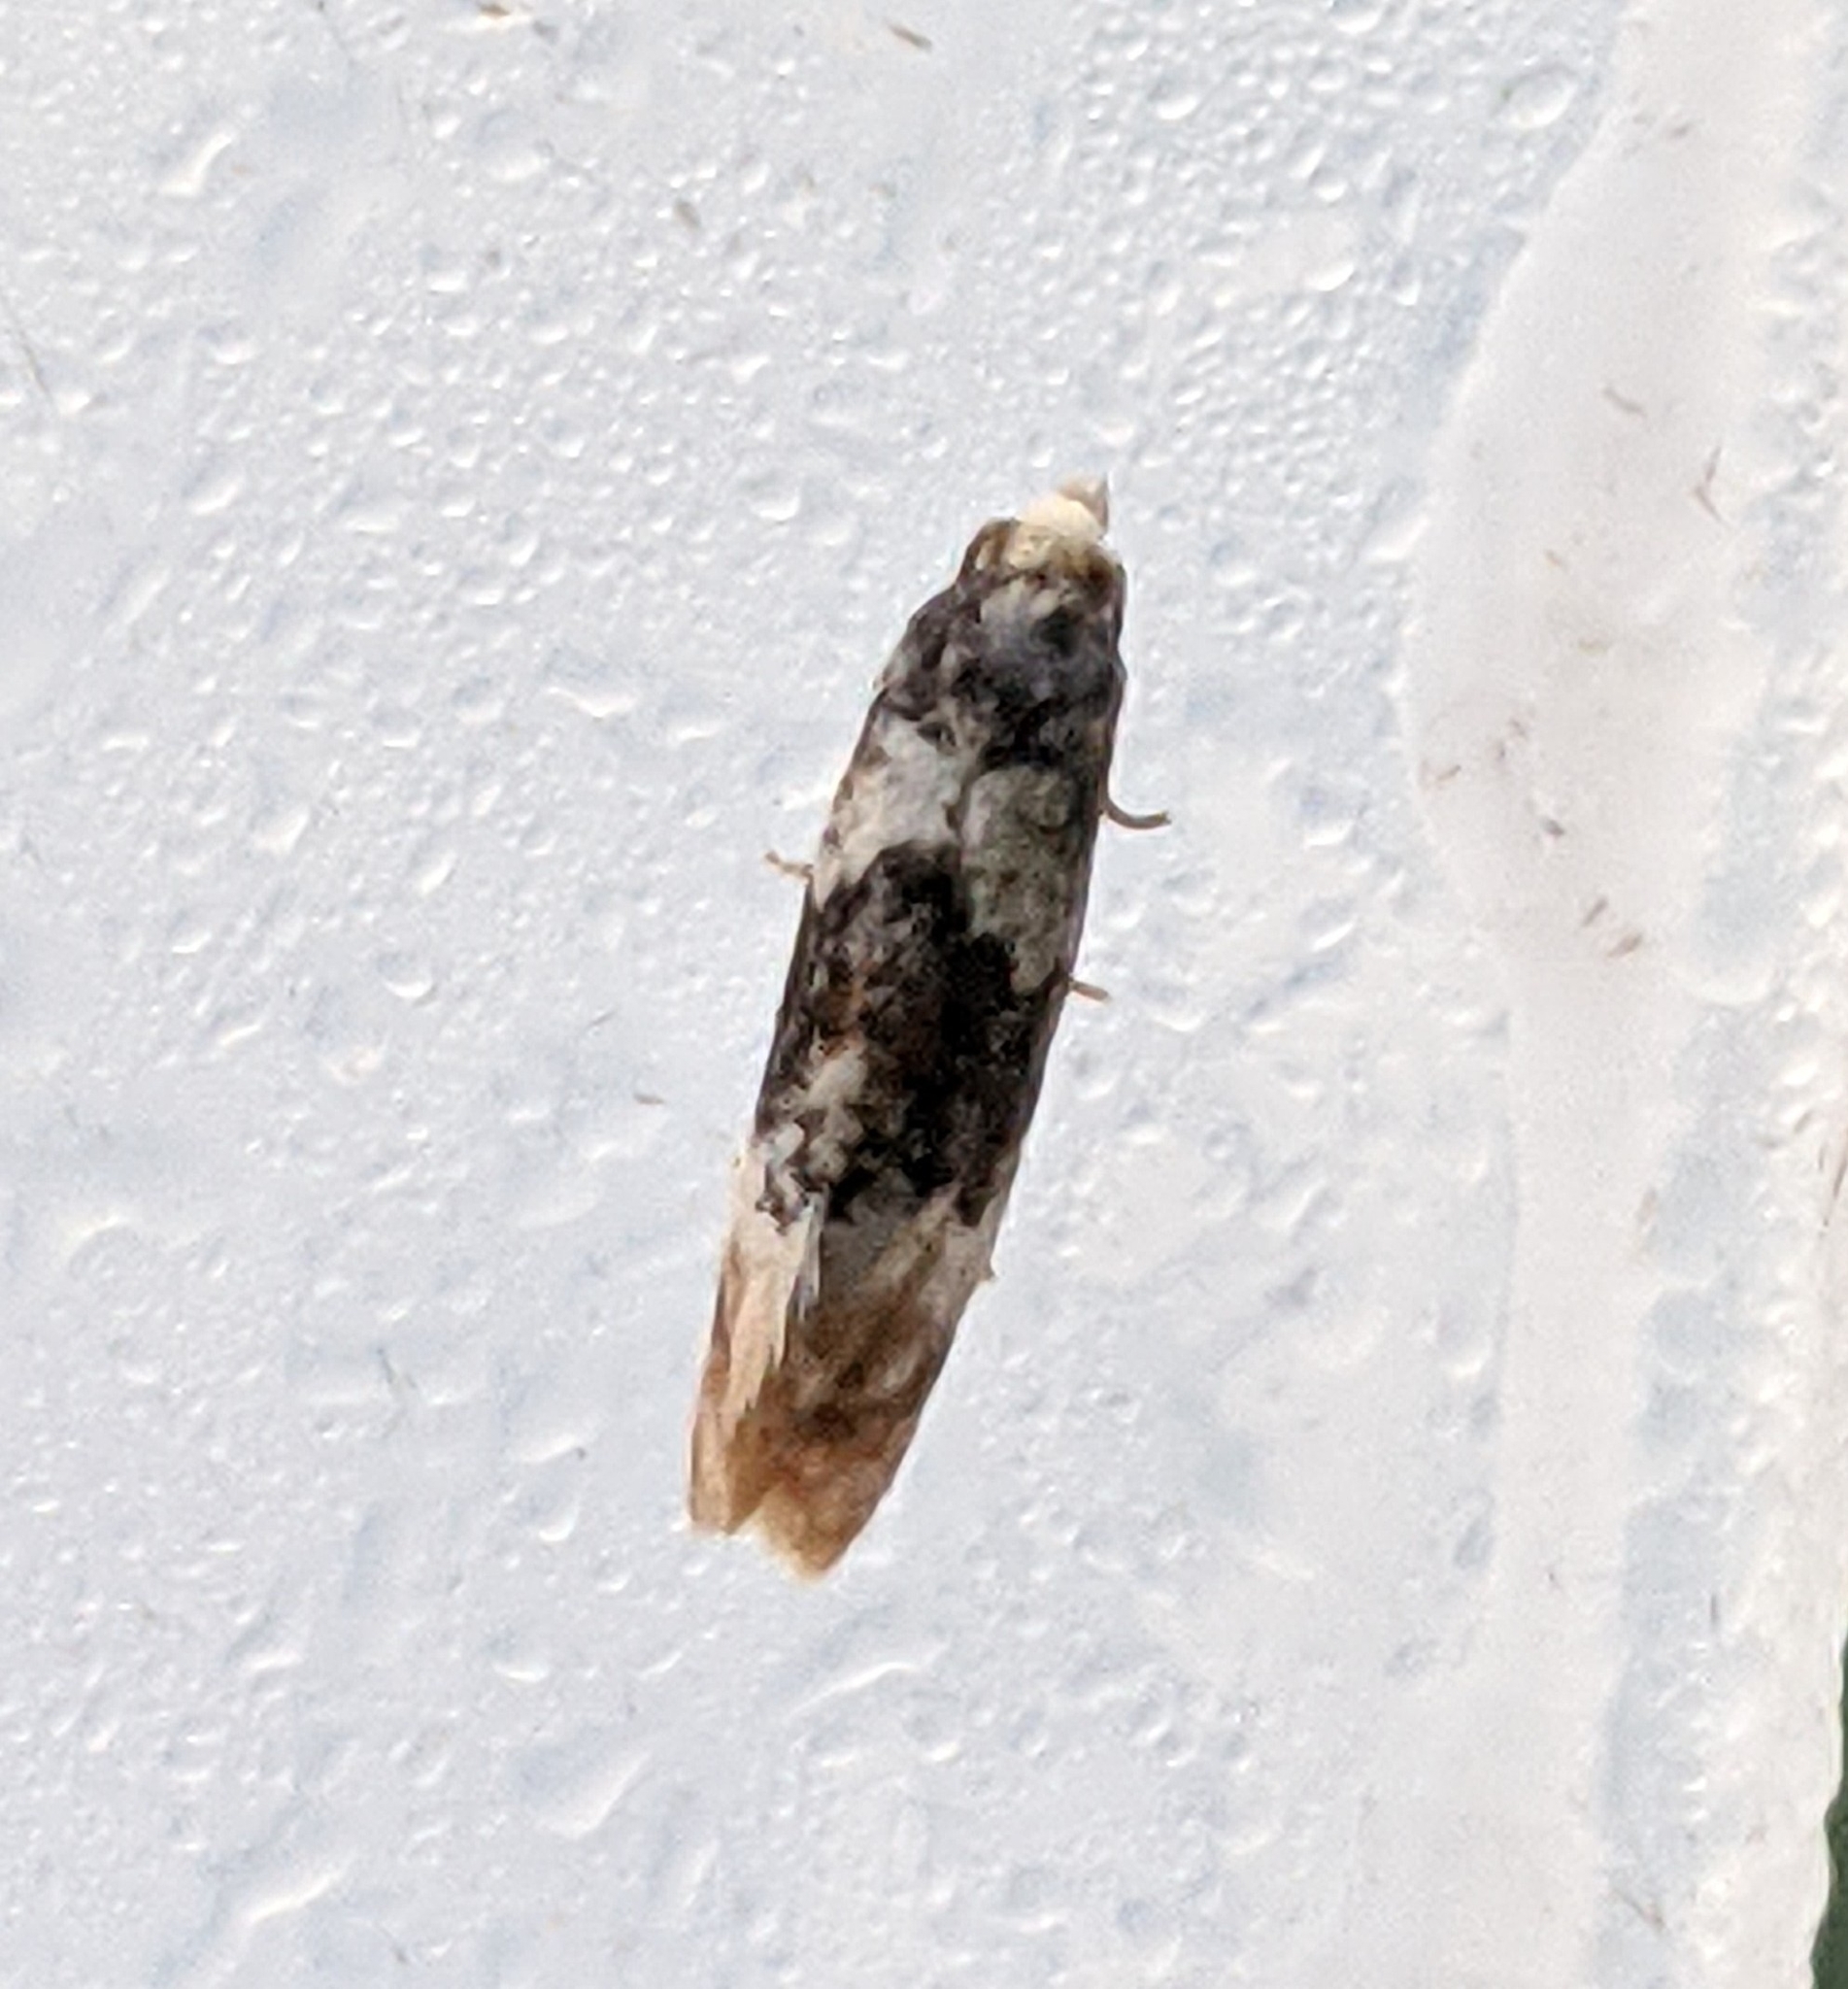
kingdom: Animalia
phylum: Arthropoda
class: Insecta
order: Lepidoptera
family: Tortricidae
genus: Thyraylia
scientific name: Thyraylia nana
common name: Birch conch
